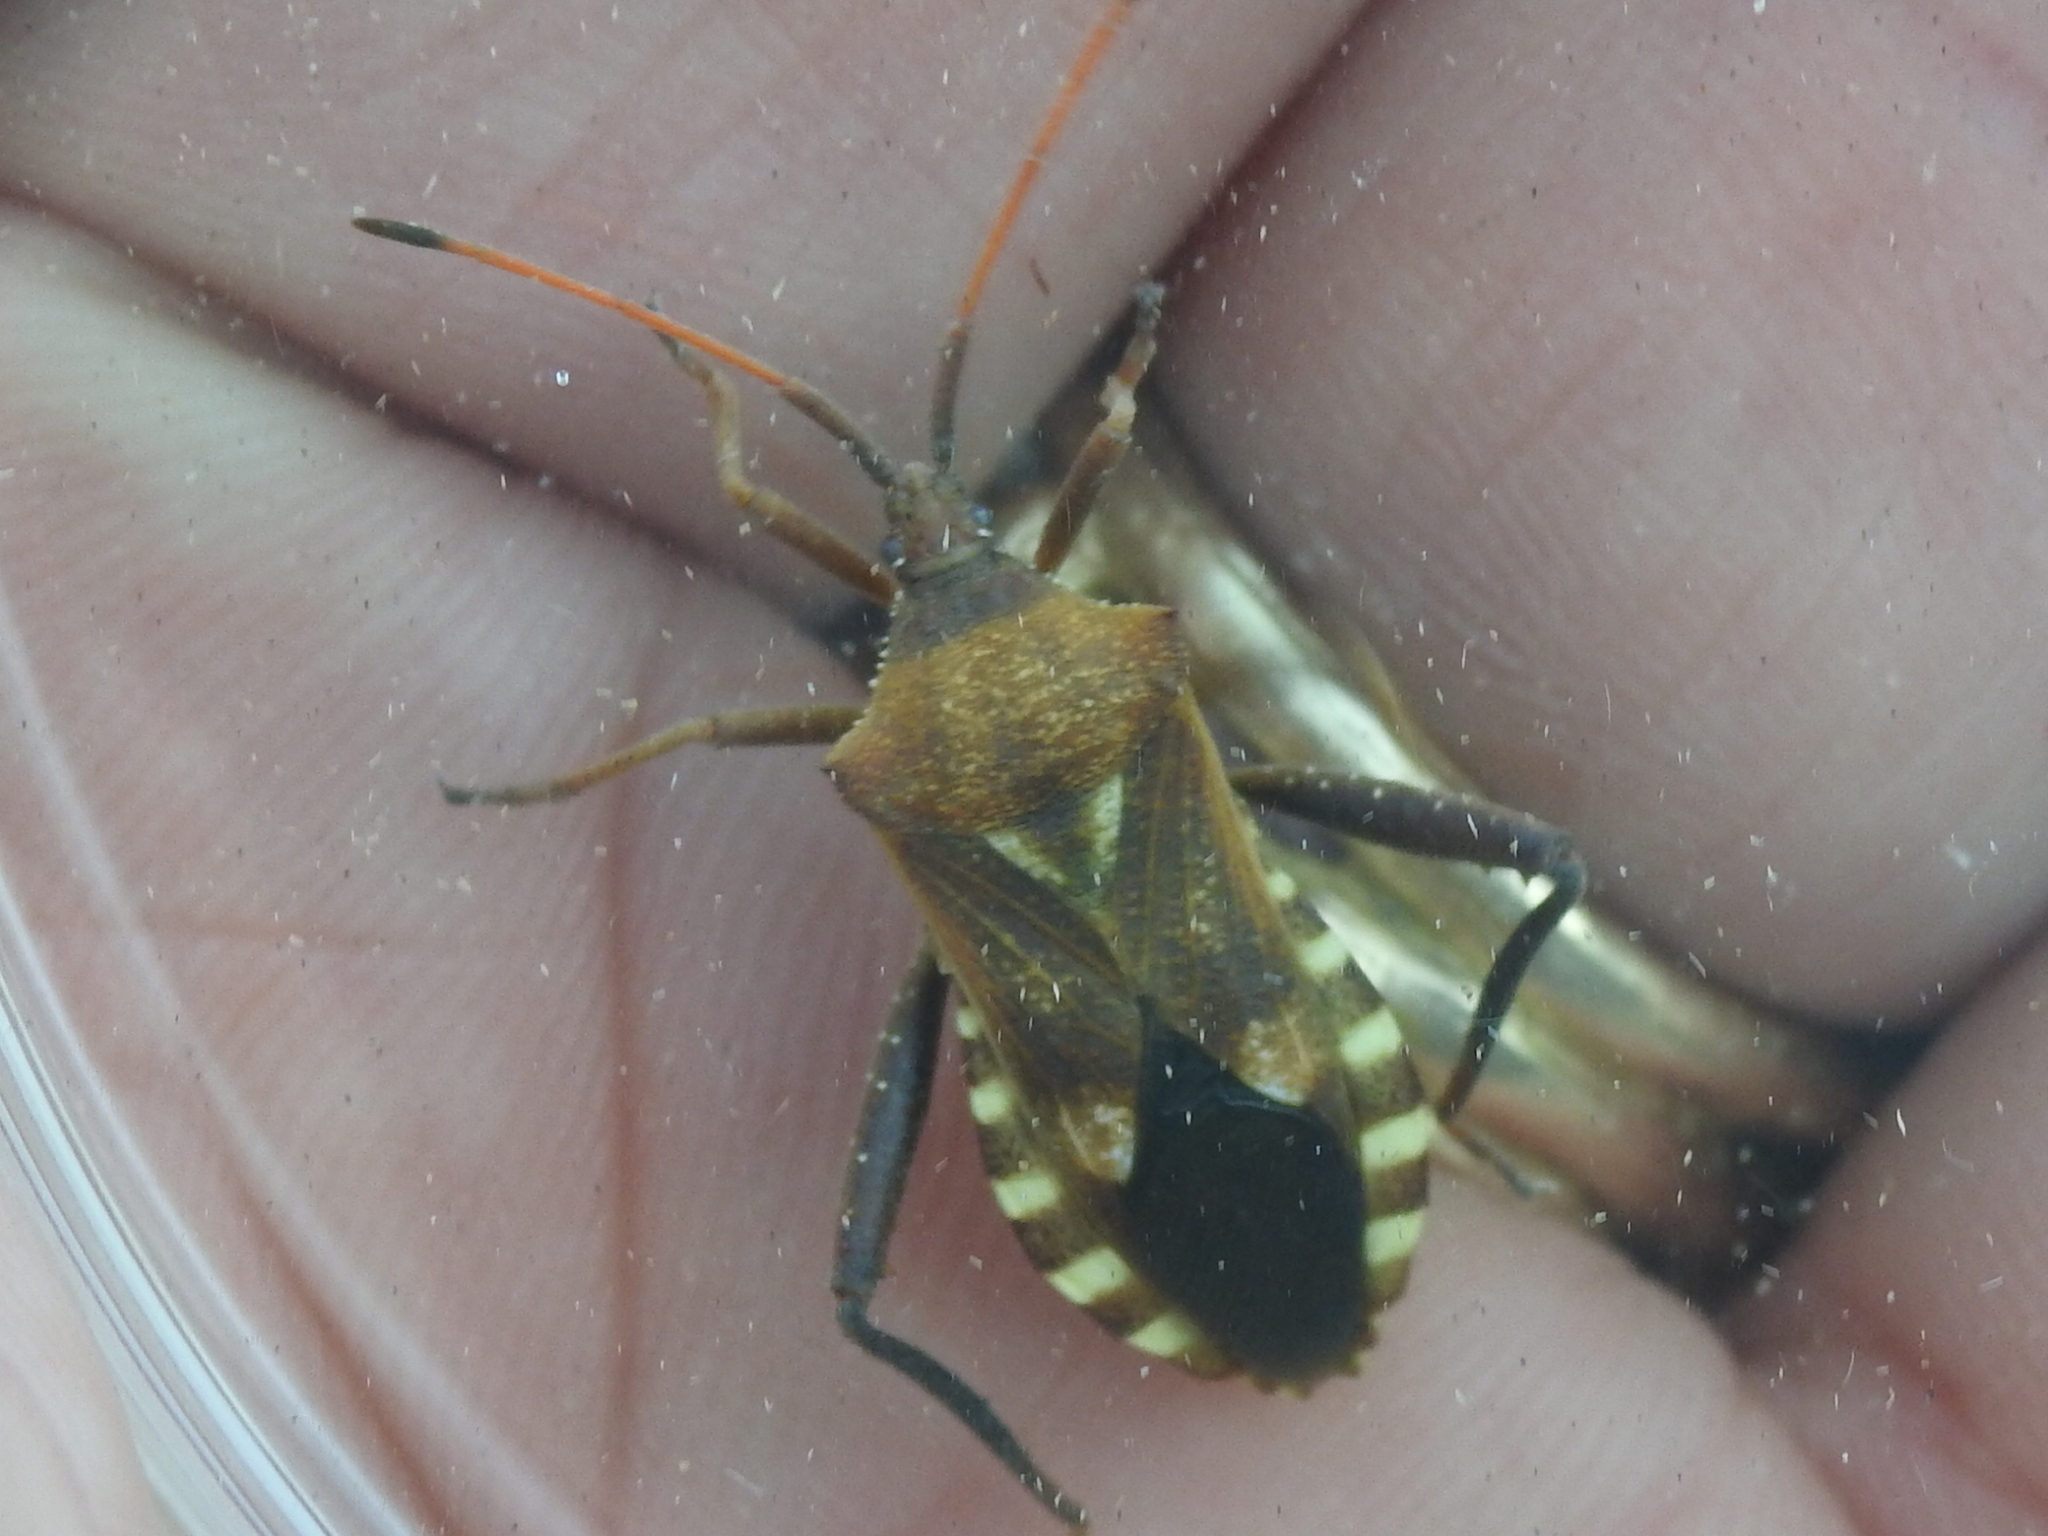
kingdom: Animalia
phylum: Arthropoda
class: Insecta
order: Hemiptera
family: Coreidae
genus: Mozena
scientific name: Mozena obtusa
